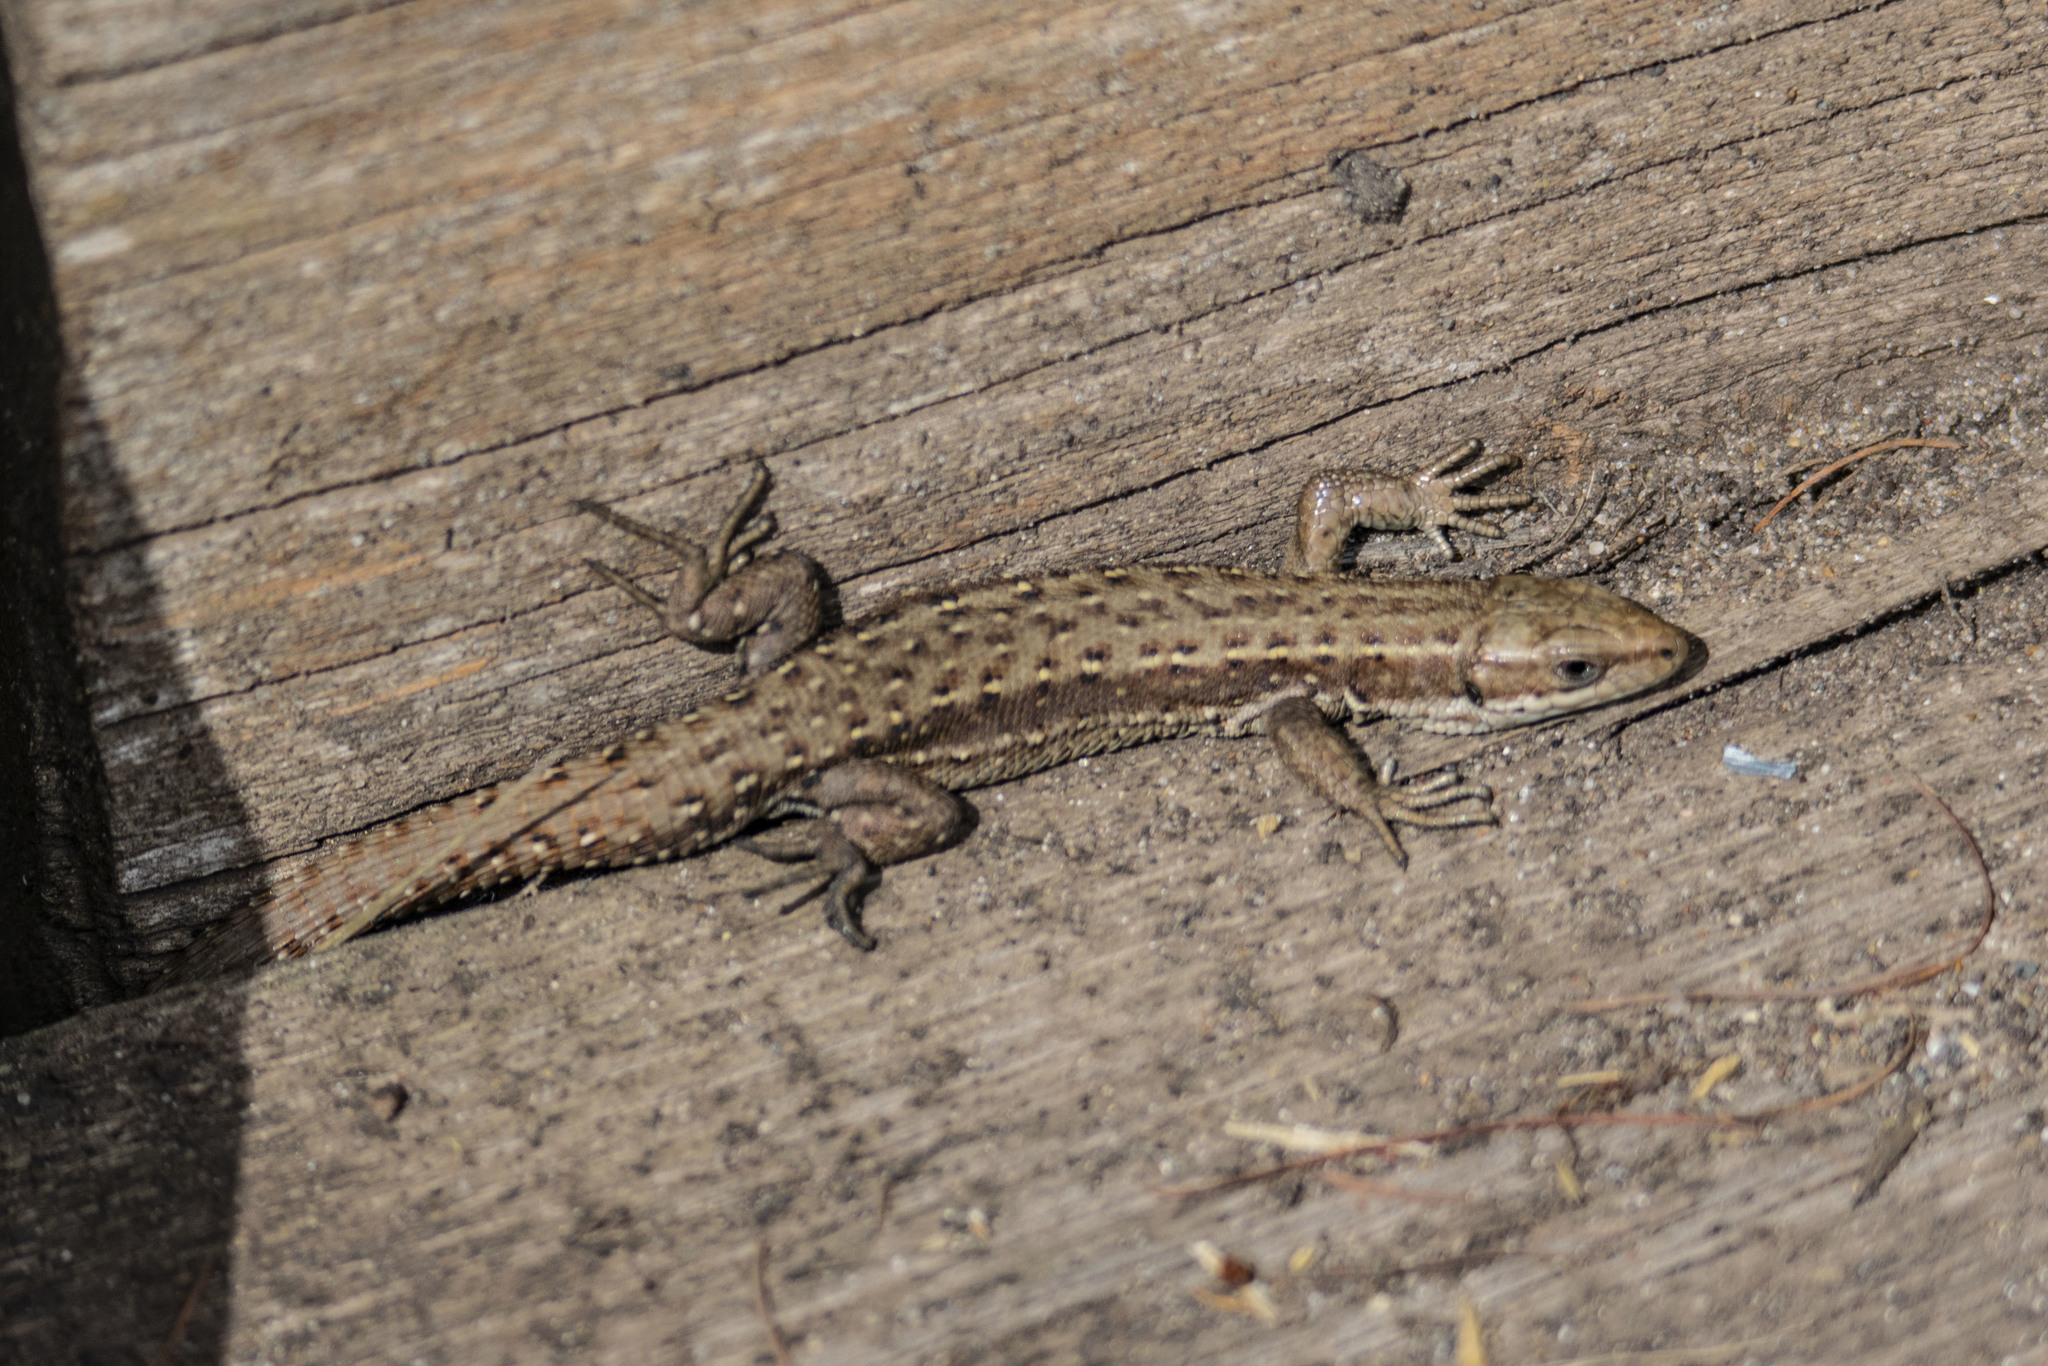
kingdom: Animalia
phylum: Chordata
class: Squamata
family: Lacertidae
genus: Zootoca
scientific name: Zootoca vivipara
